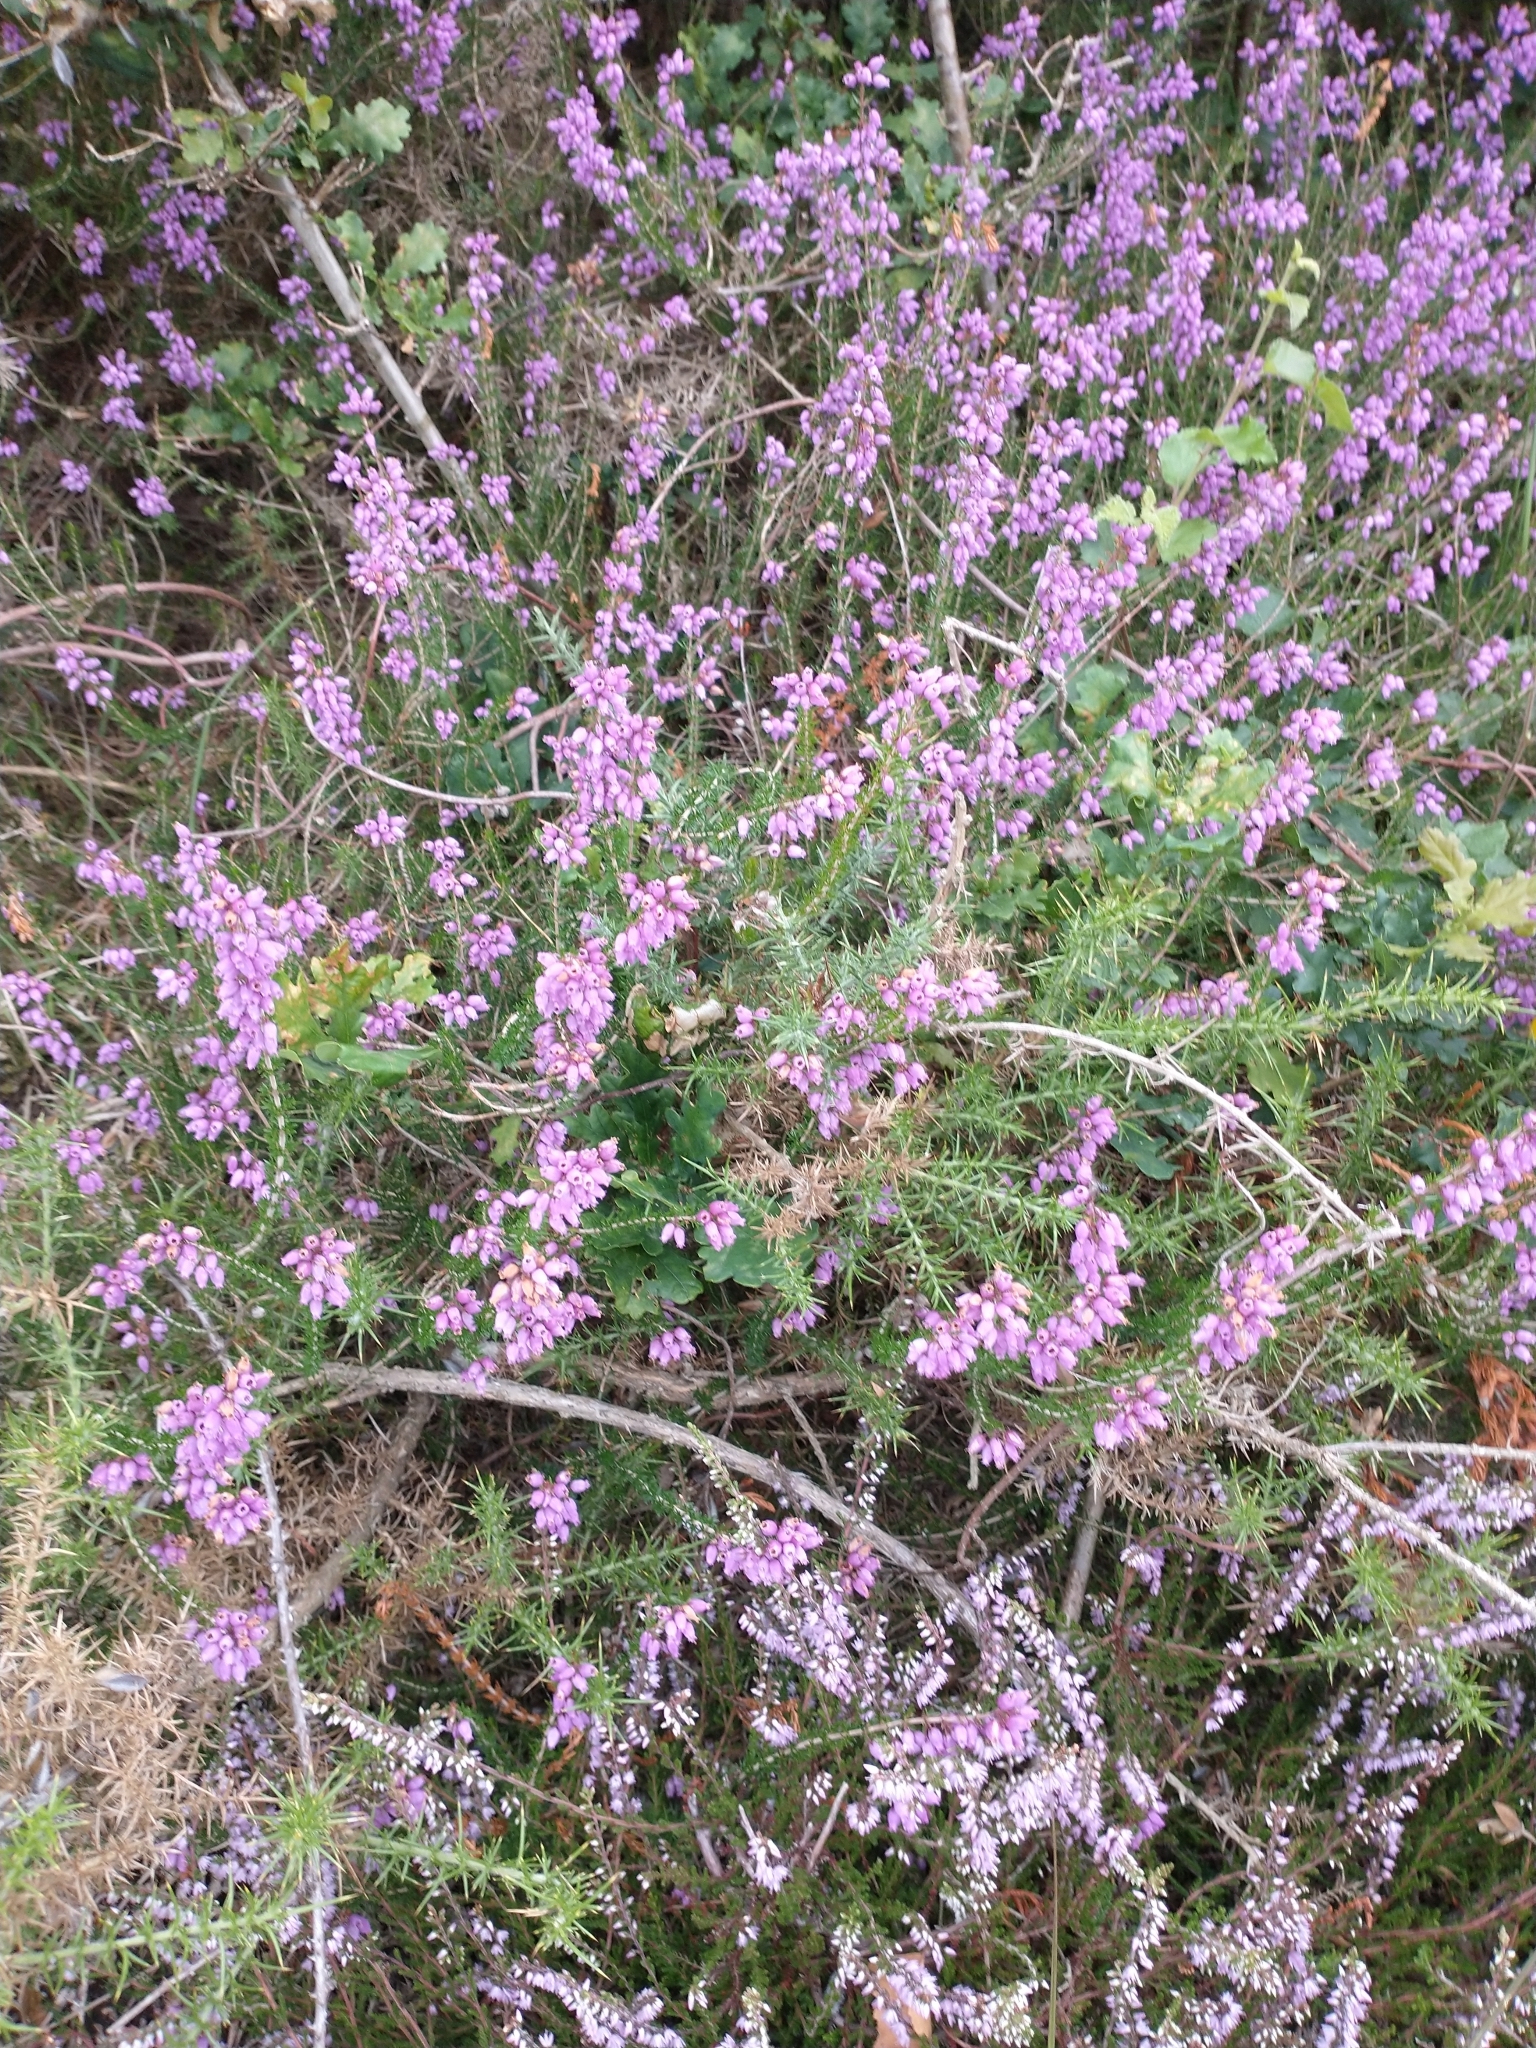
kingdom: Plantae
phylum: Tracheophyta
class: Magnoliopsida
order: Ericales
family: Ericaceae
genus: Erica
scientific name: Erica cinerea
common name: Bell heather
